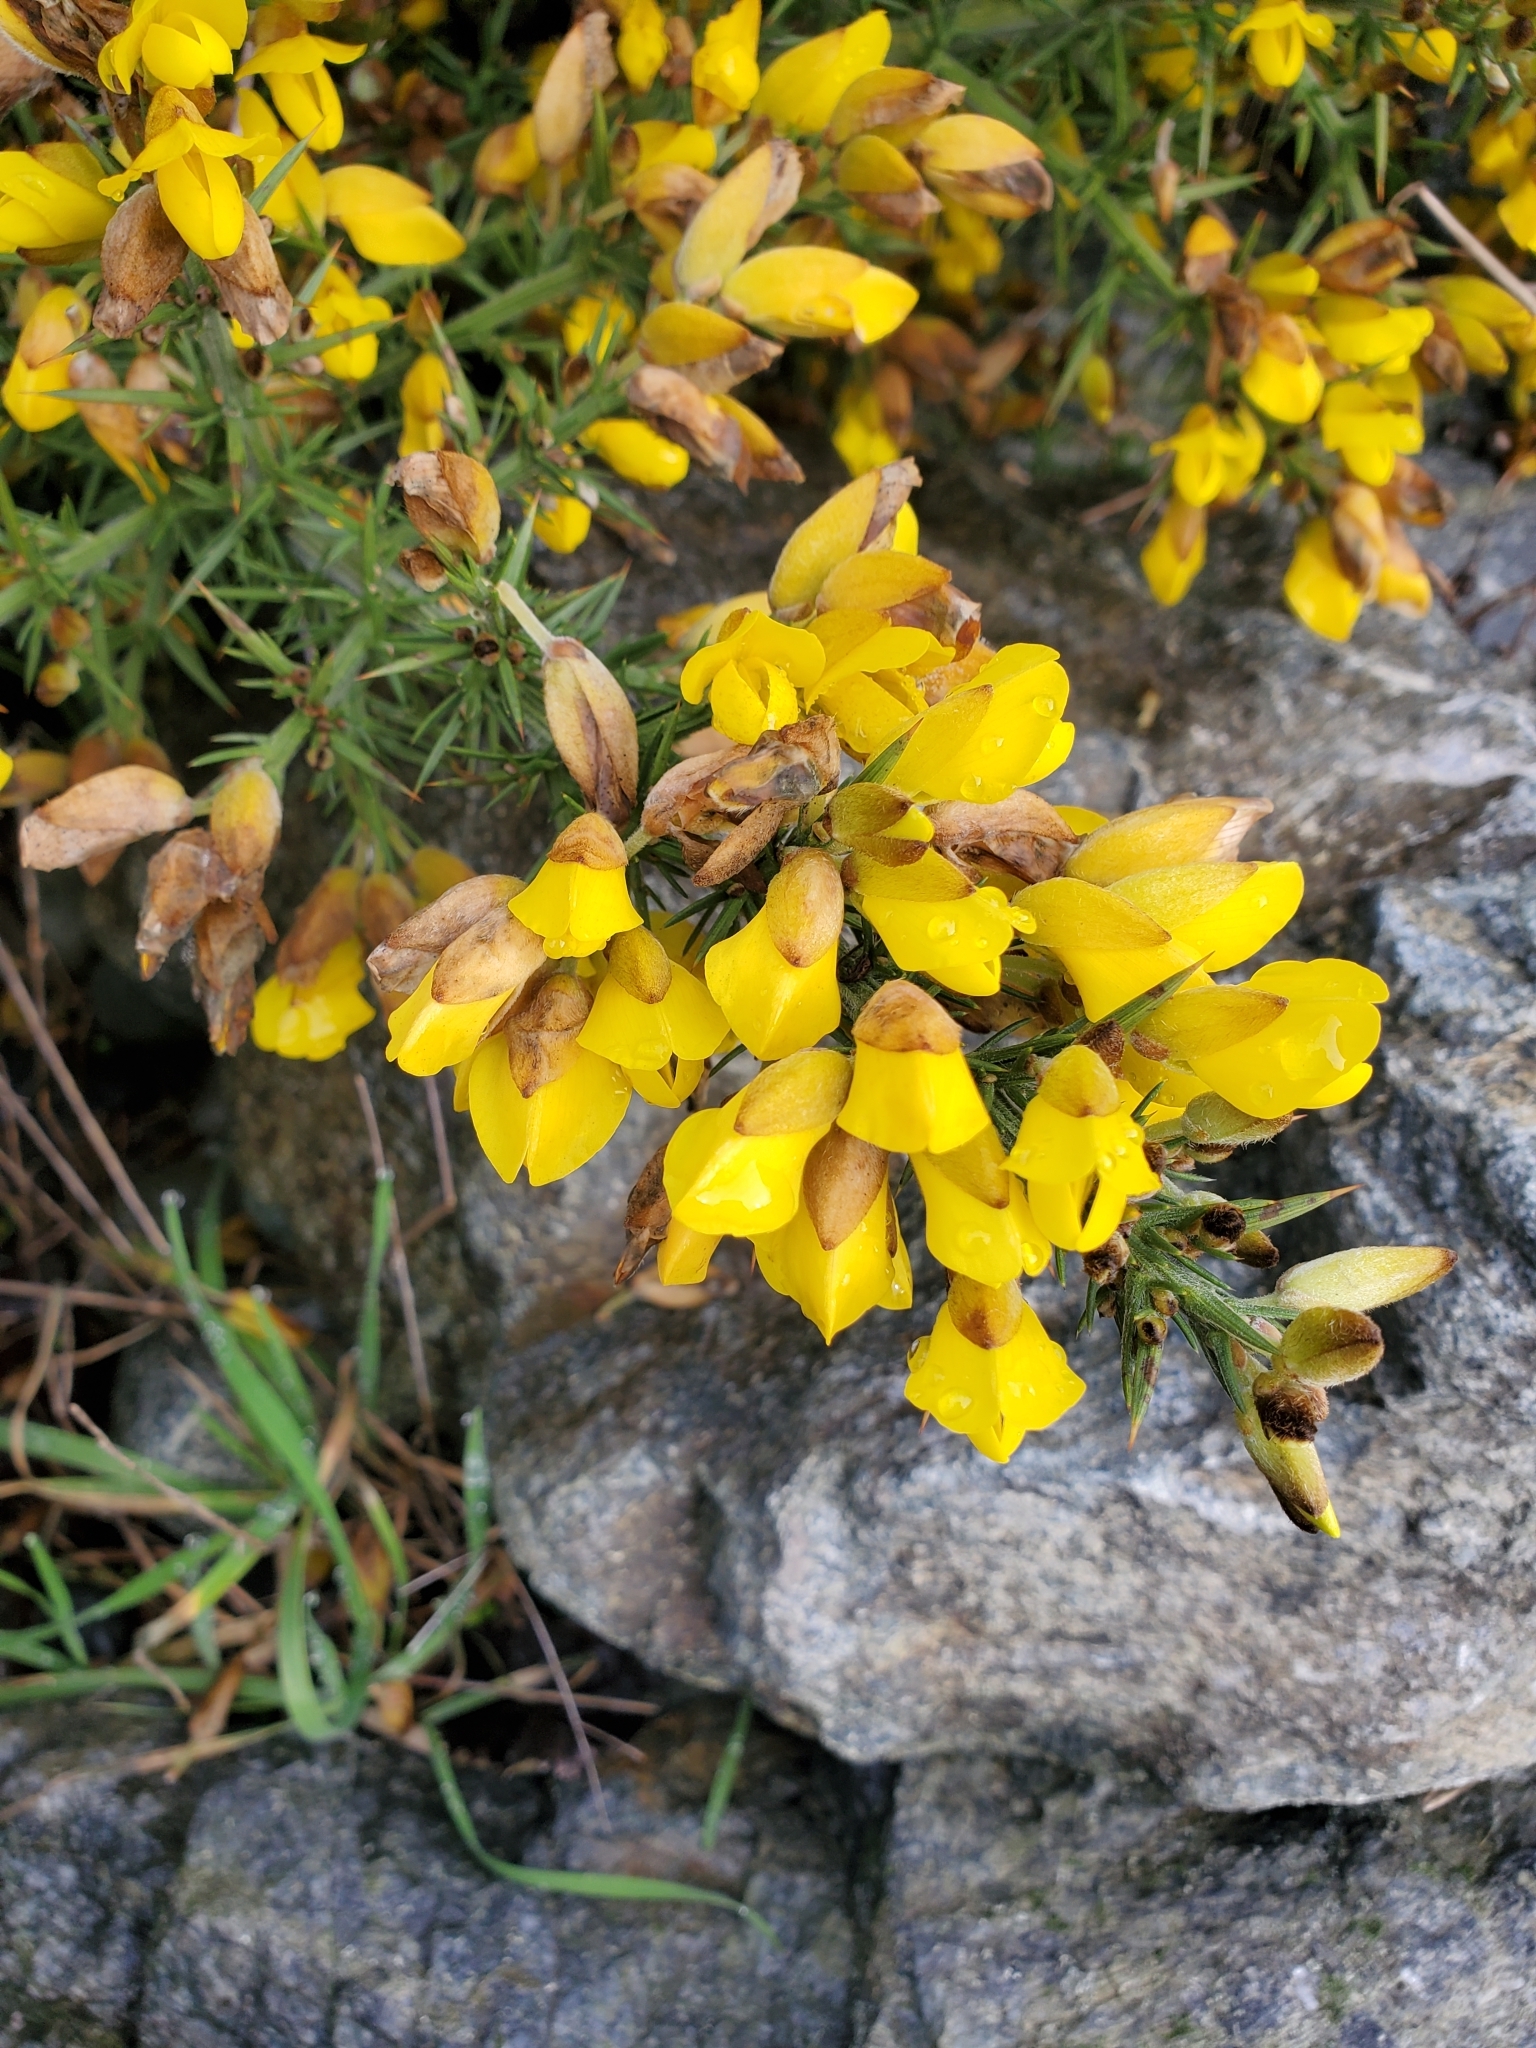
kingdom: Plantae
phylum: Tracheophyta
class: Magnoliopsida
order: Fabales
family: Fabaceae
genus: Ulex
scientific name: Ulex europaeus
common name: Common gorse
